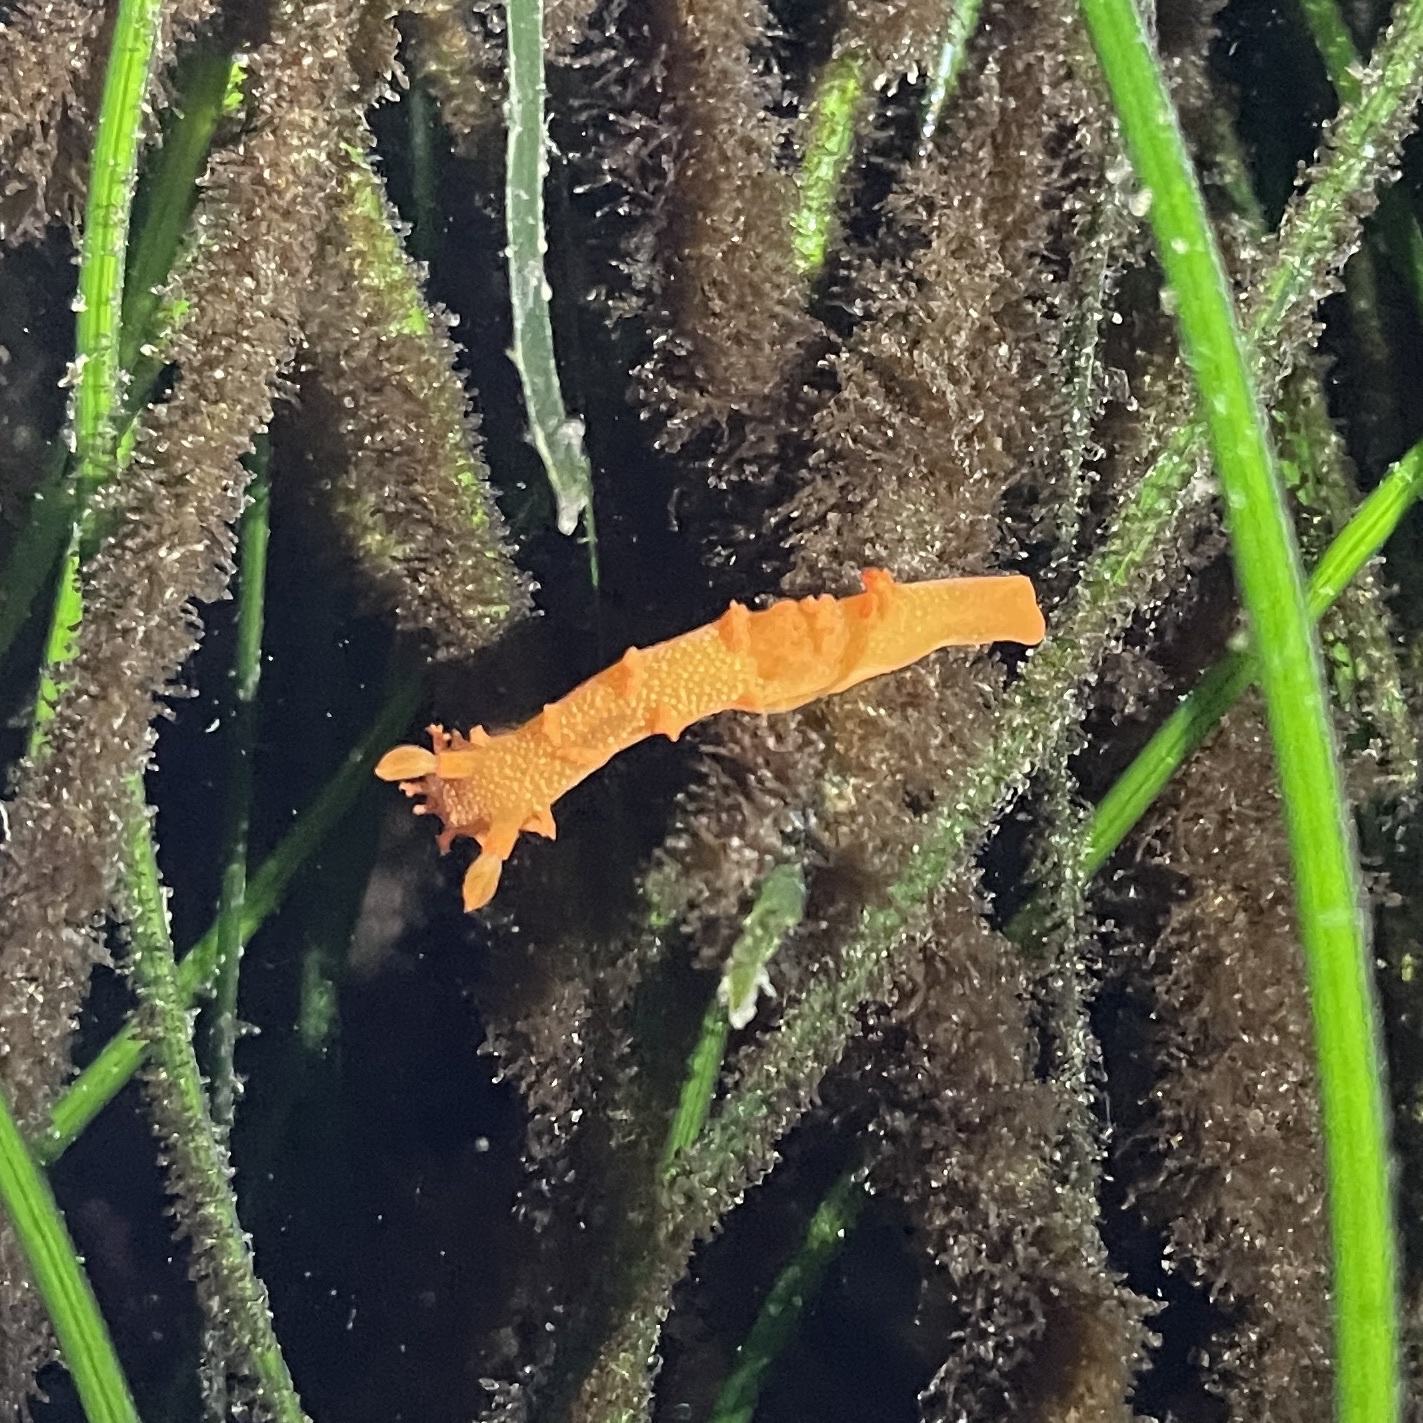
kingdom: Animalia
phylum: Mollusca
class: Gastropoda
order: Nudibranchia
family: Polyceridae
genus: Triopha
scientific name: Triopha maculata
